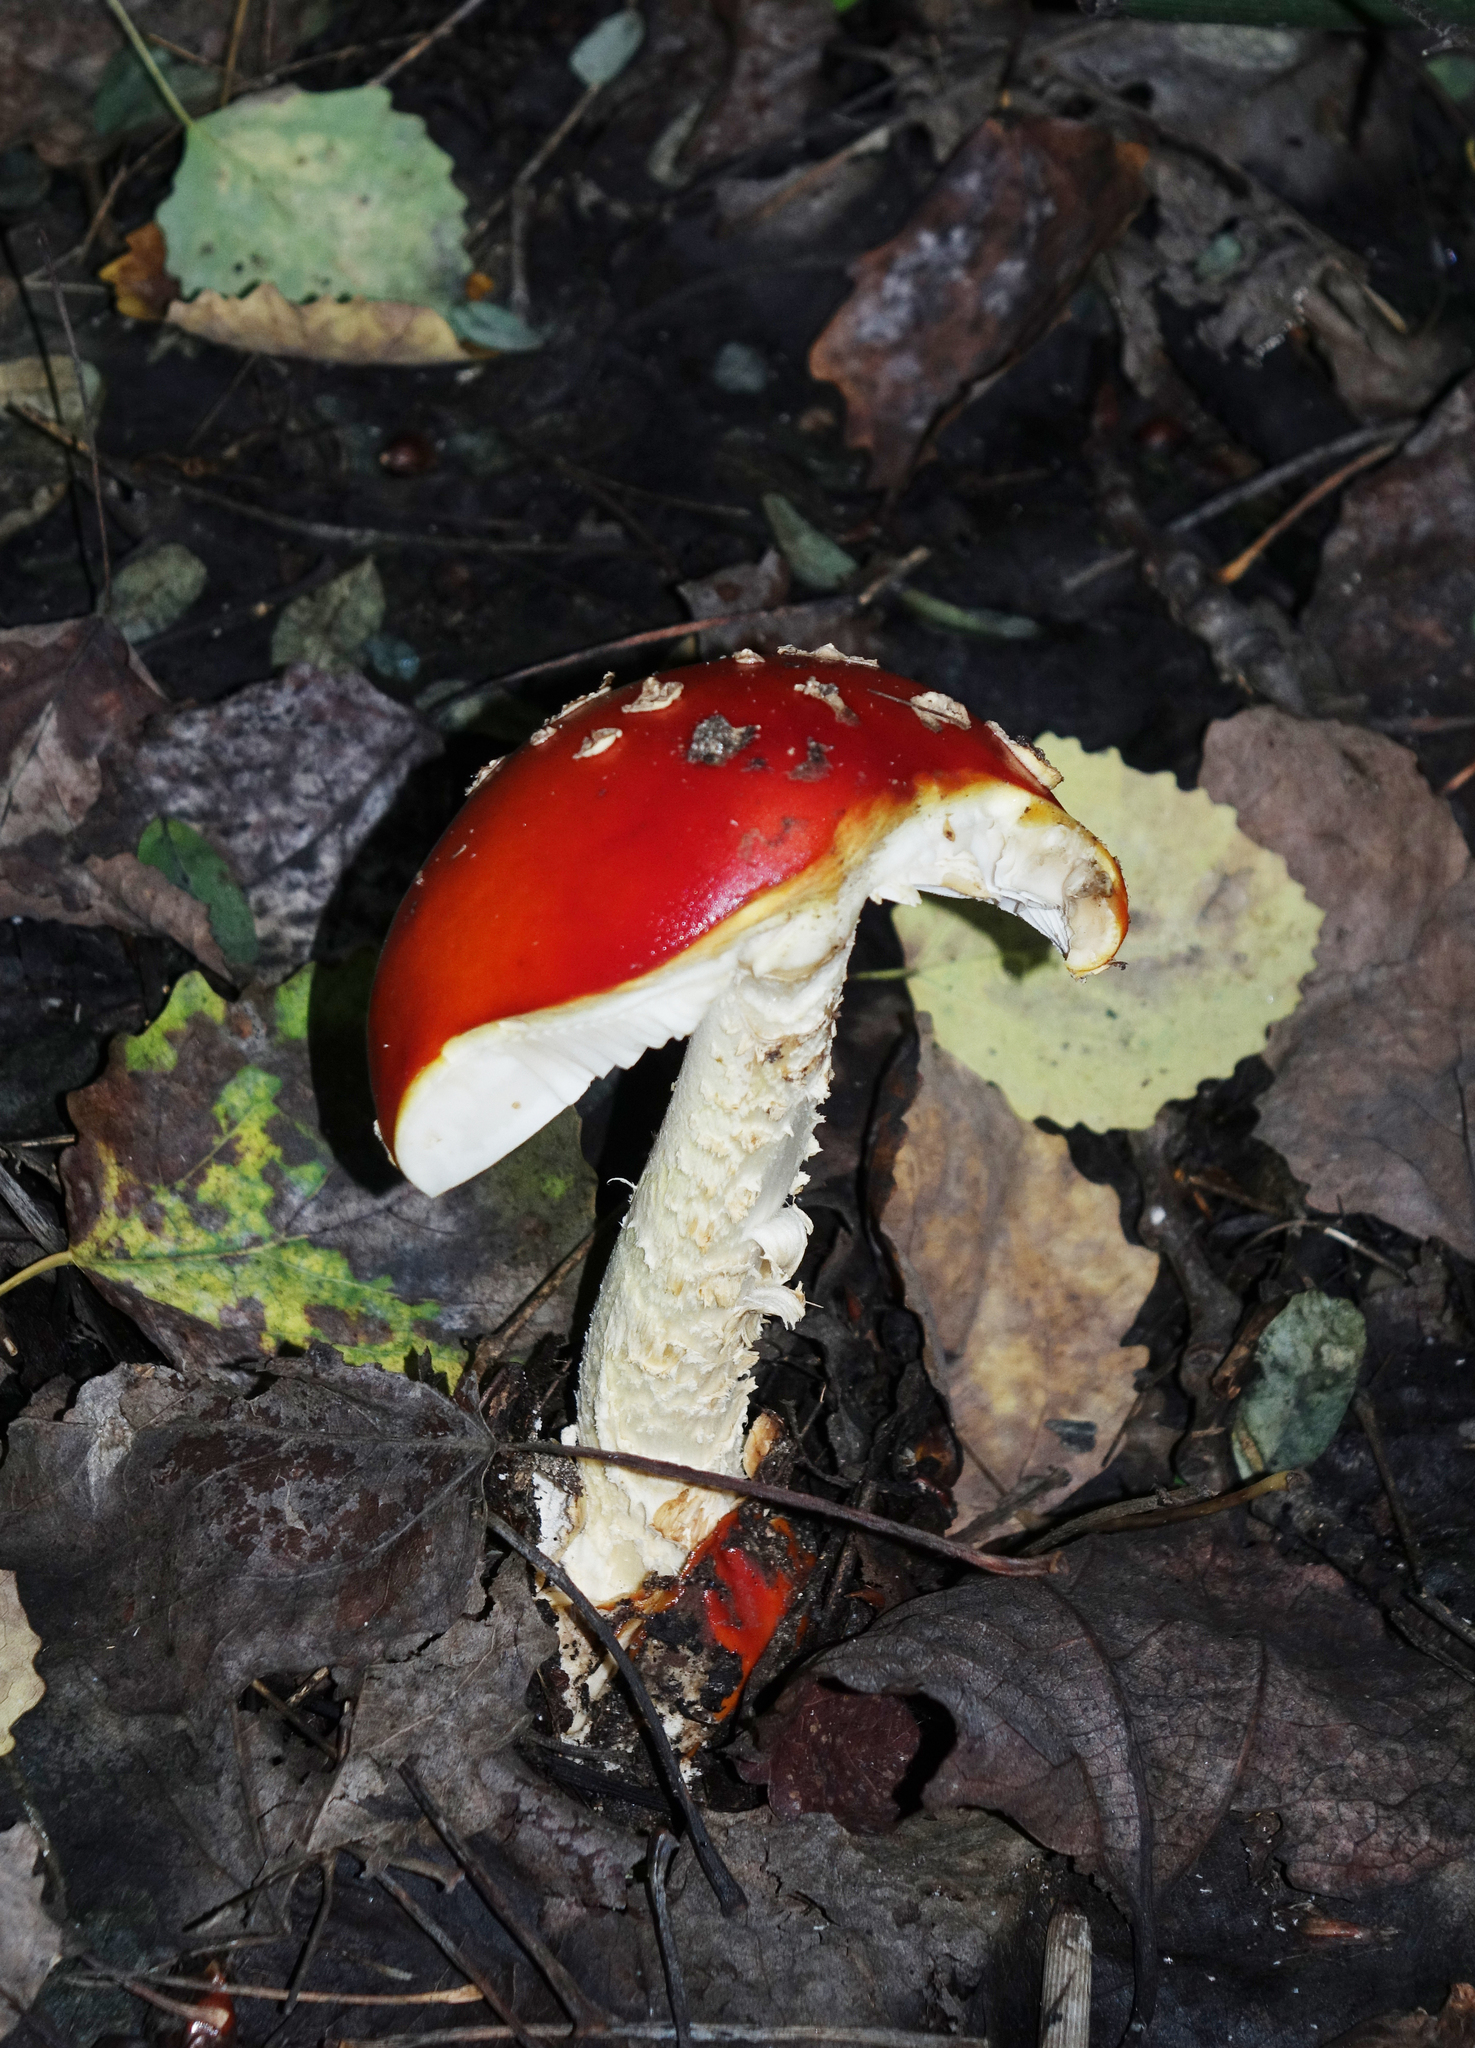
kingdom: Fungi
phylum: Basidiomycota
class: Agaricomycetes
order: Agaricales
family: Amanitaceae
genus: Amanita
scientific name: Amanita muscaria
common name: Fly agaric
